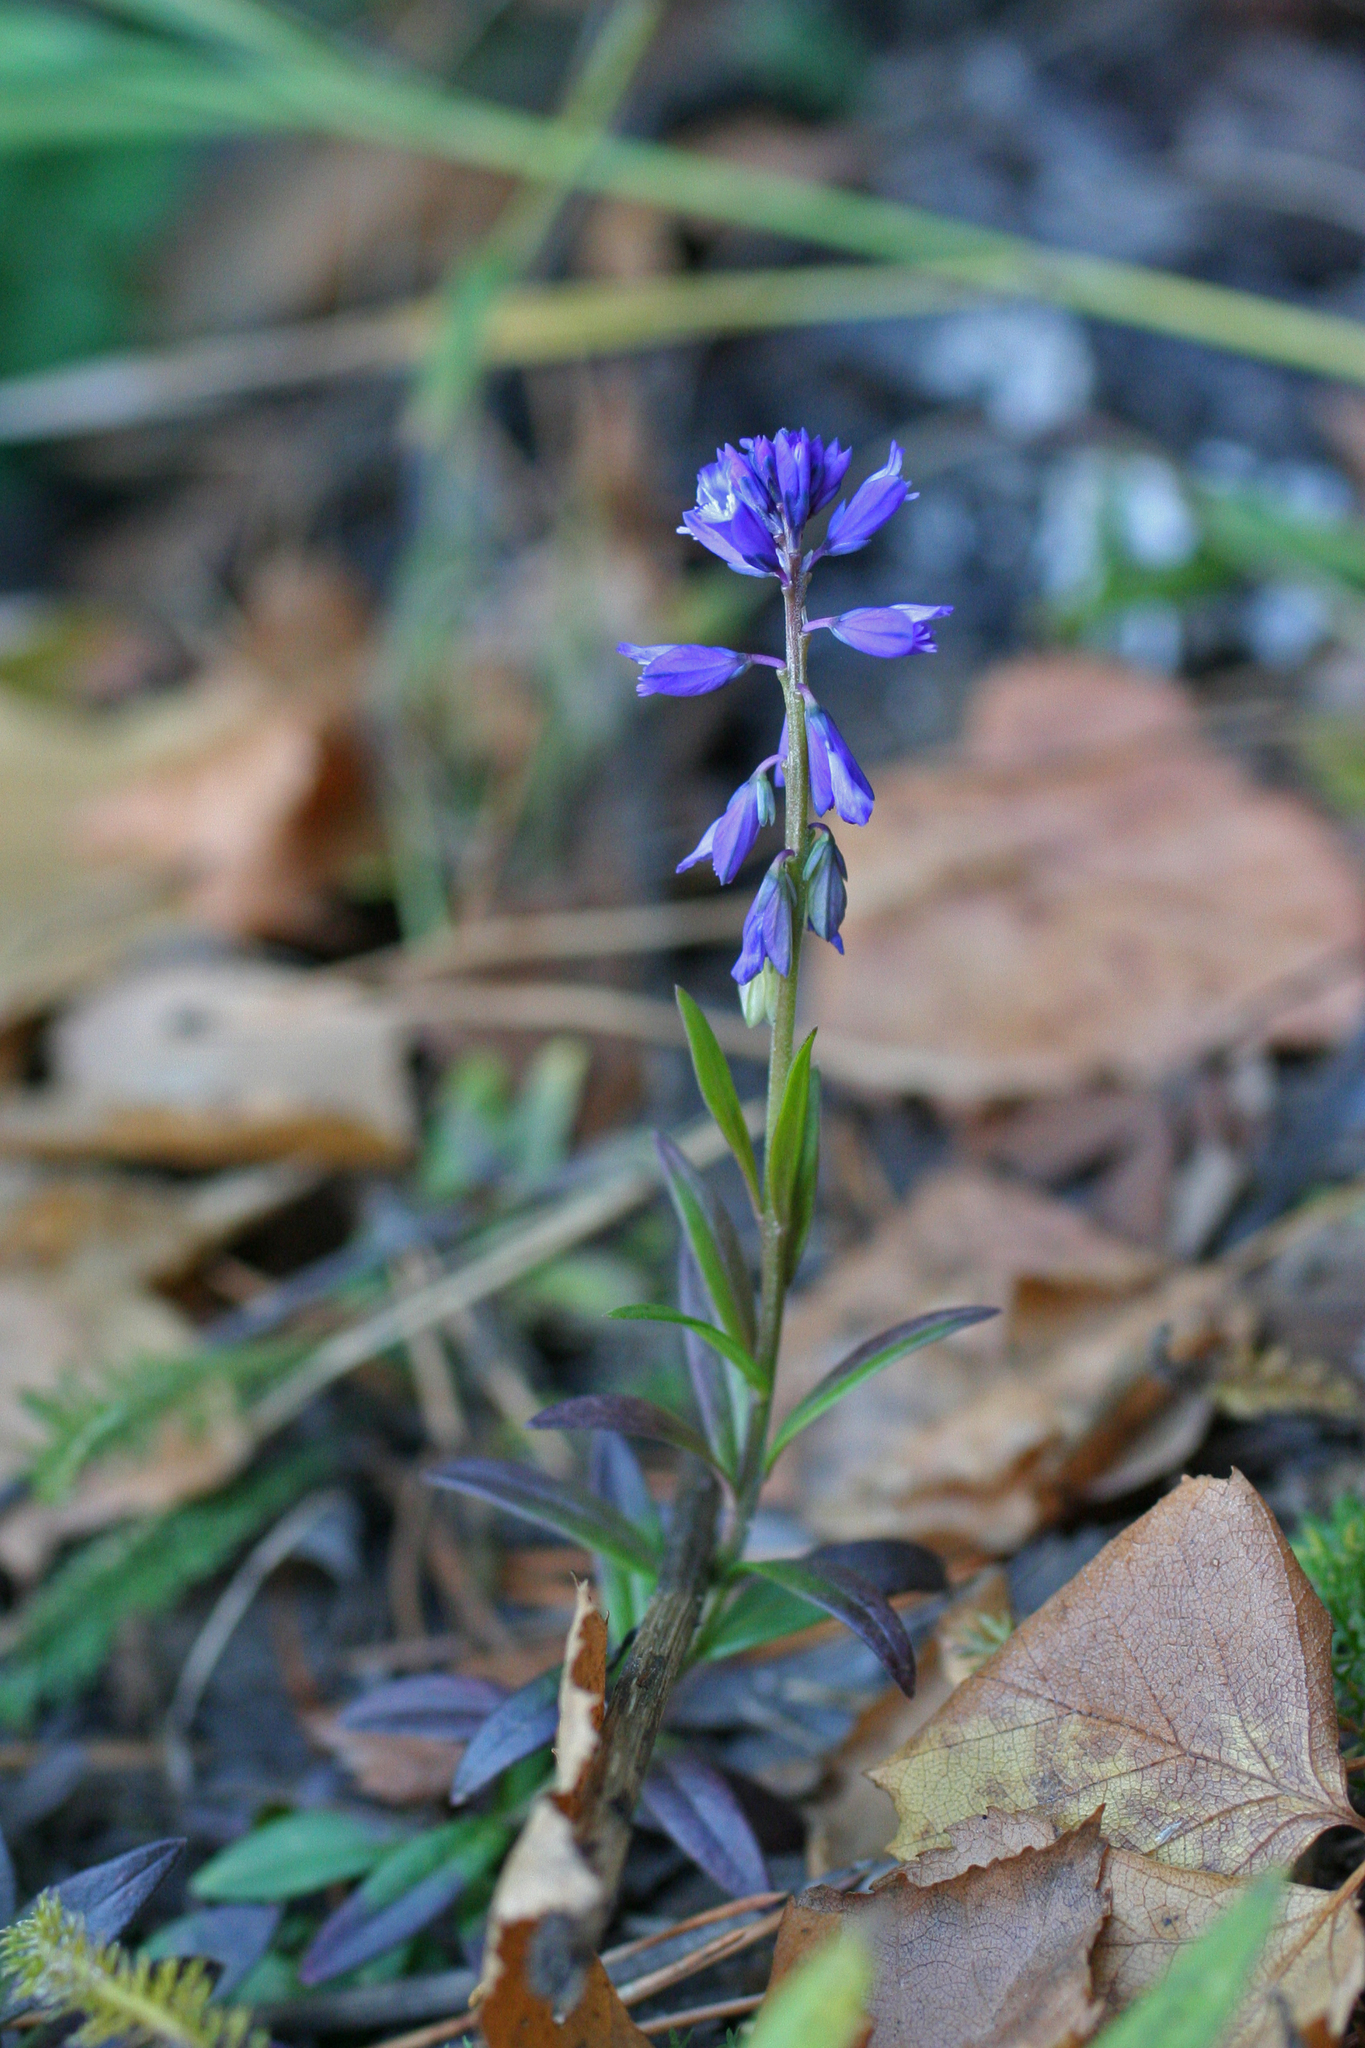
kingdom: Plantae
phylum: Tracheophyta
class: Magnoliopsida
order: Fabales
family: Polygalaceae
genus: Polygala
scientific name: Polygala comosa
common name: Tufted milkwort
